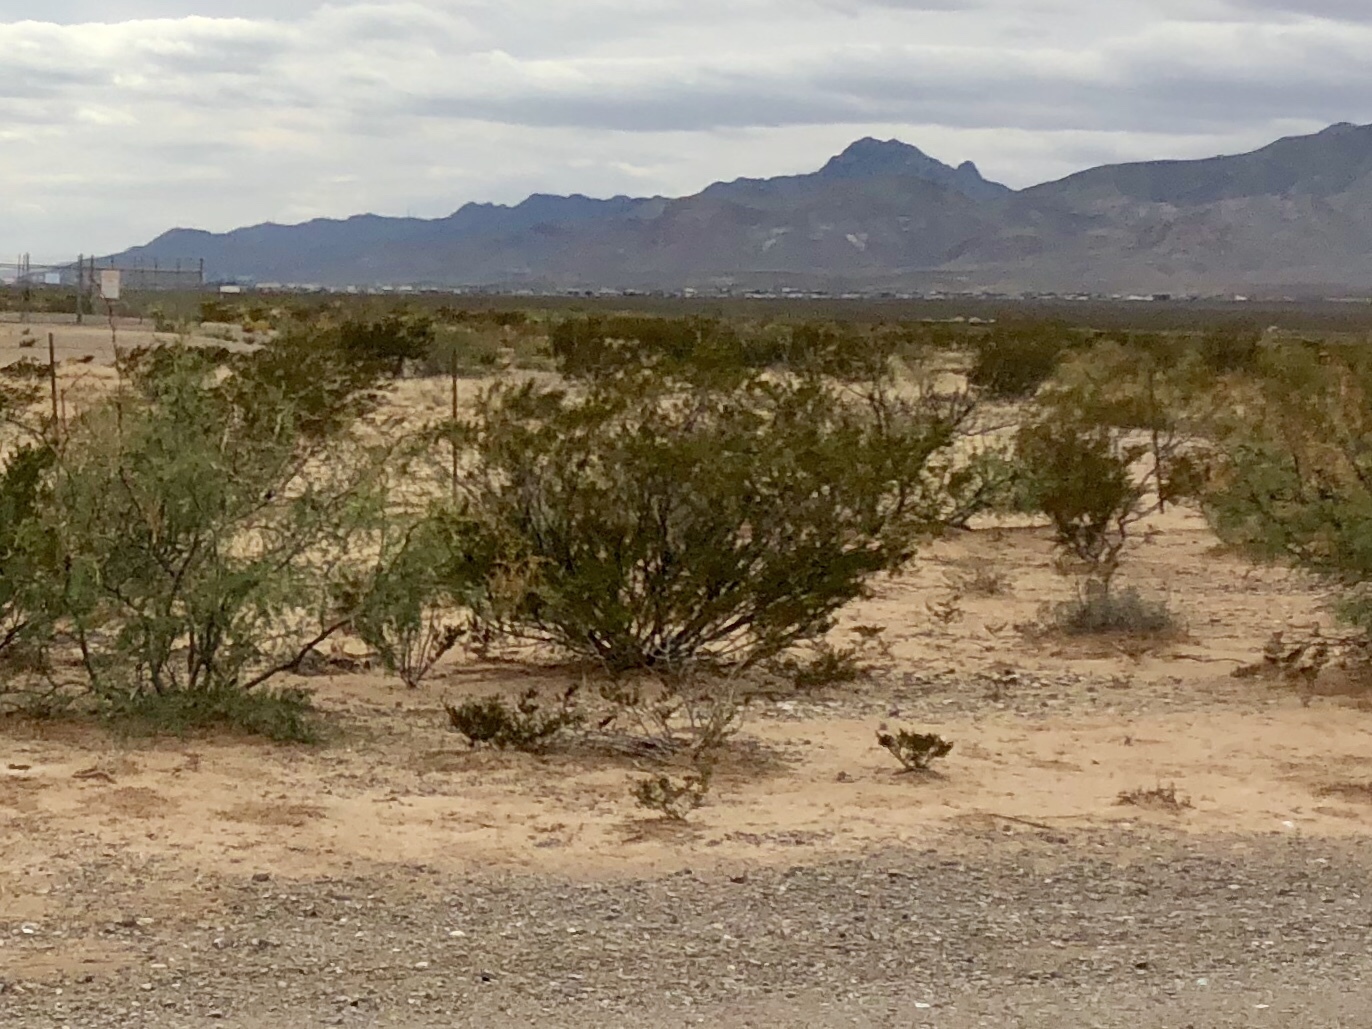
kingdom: Plantae
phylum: Tracheophyta
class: Magnoliopsida
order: Zygophyllales
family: Zygophyllaceae
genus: Larrea
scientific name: Larrea tridentata
